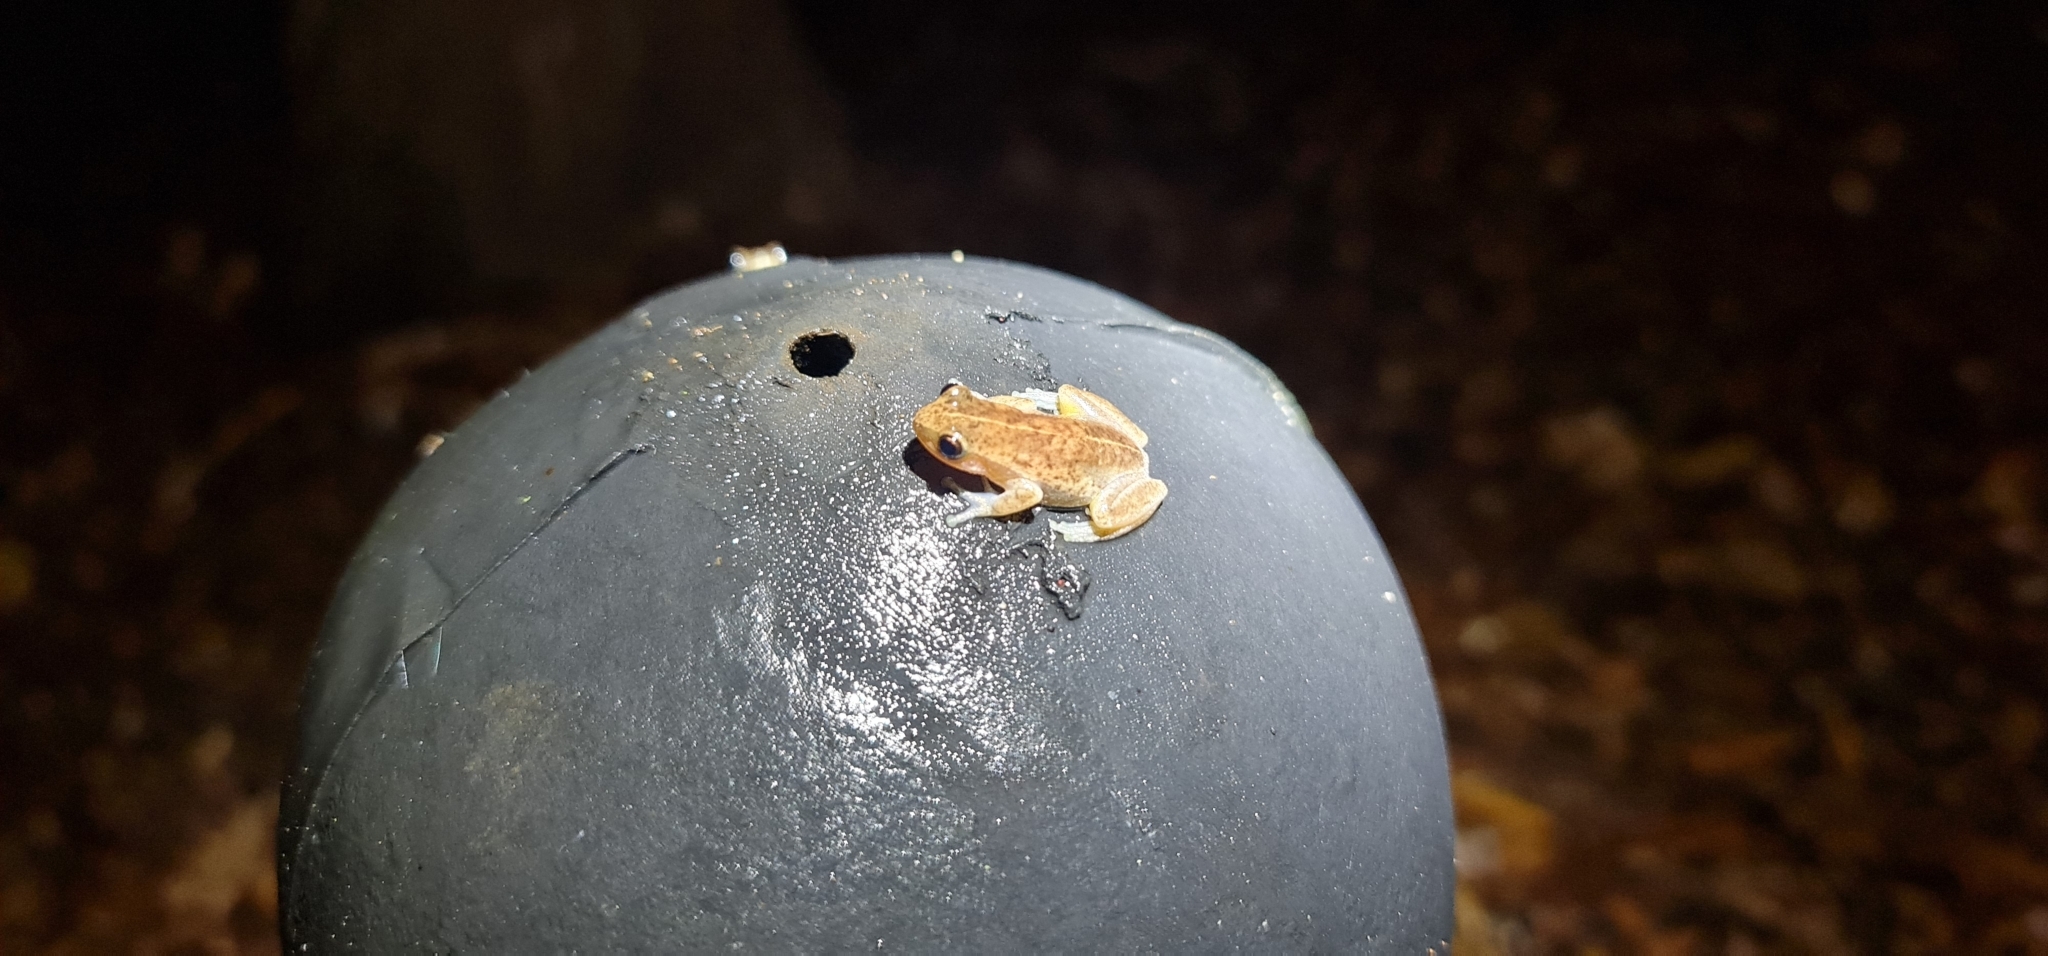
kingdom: Animalia
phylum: Chordata
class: Amphibia
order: Anura
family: Pelodryadidae
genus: Litoria
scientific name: Litoria rubella
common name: Desert tree frog
